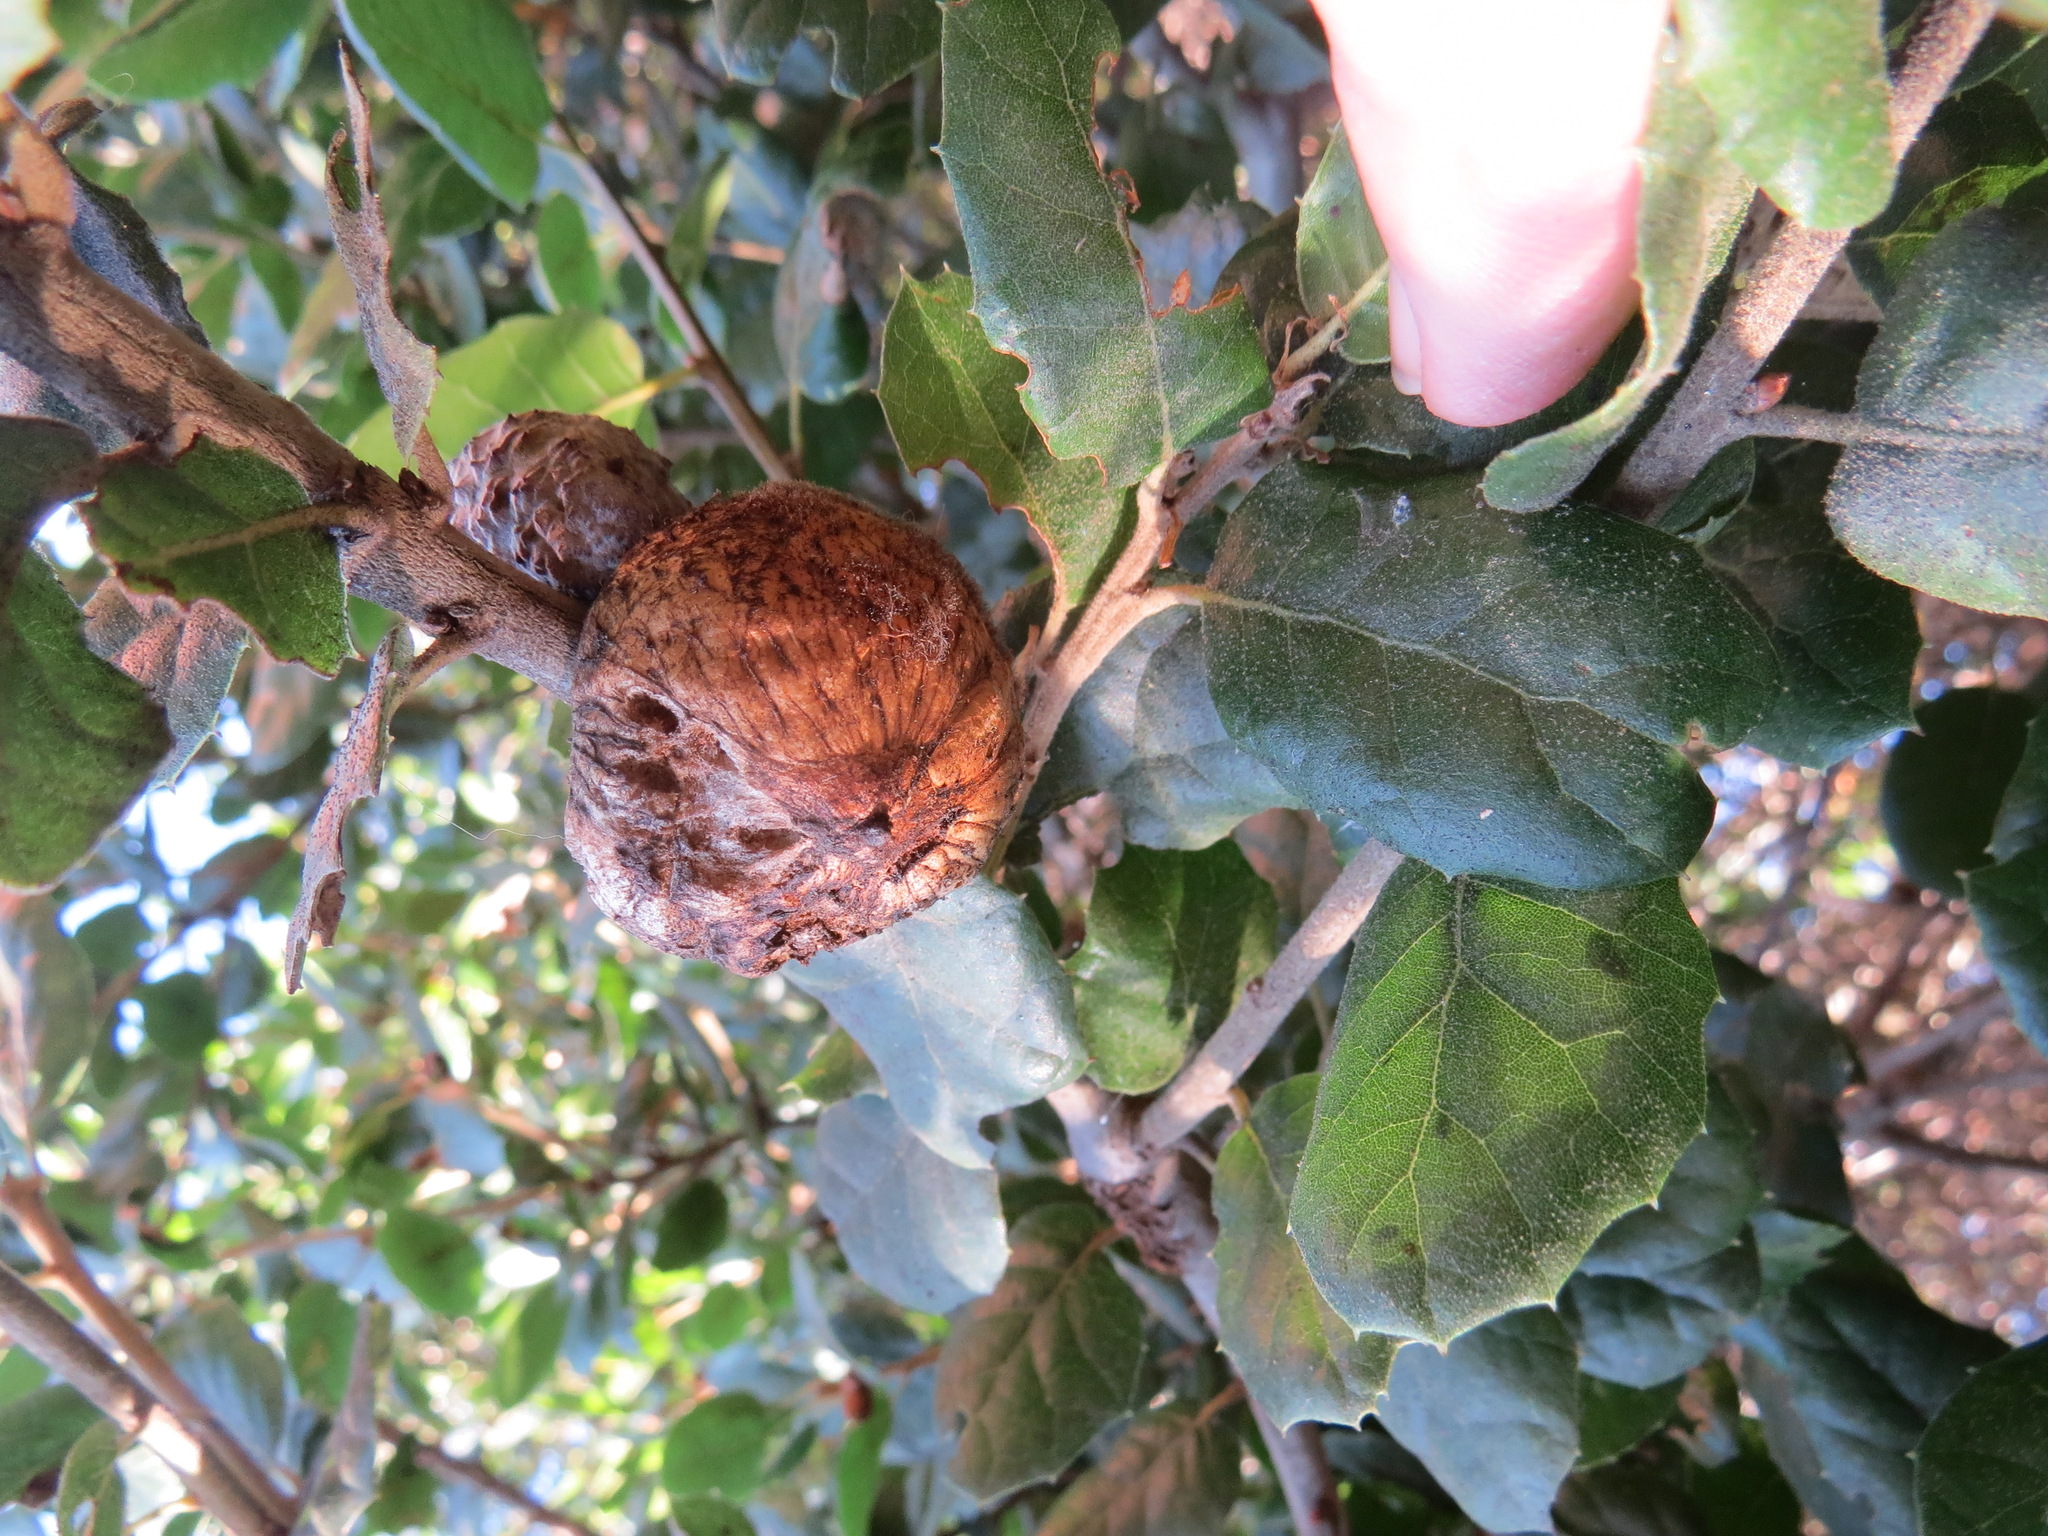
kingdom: Animalia
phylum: Arthropoda
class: Insecta
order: Hymenoptera
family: Cynipidae
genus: Amphibolips
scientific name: Amphibolips quercuspomiformis
